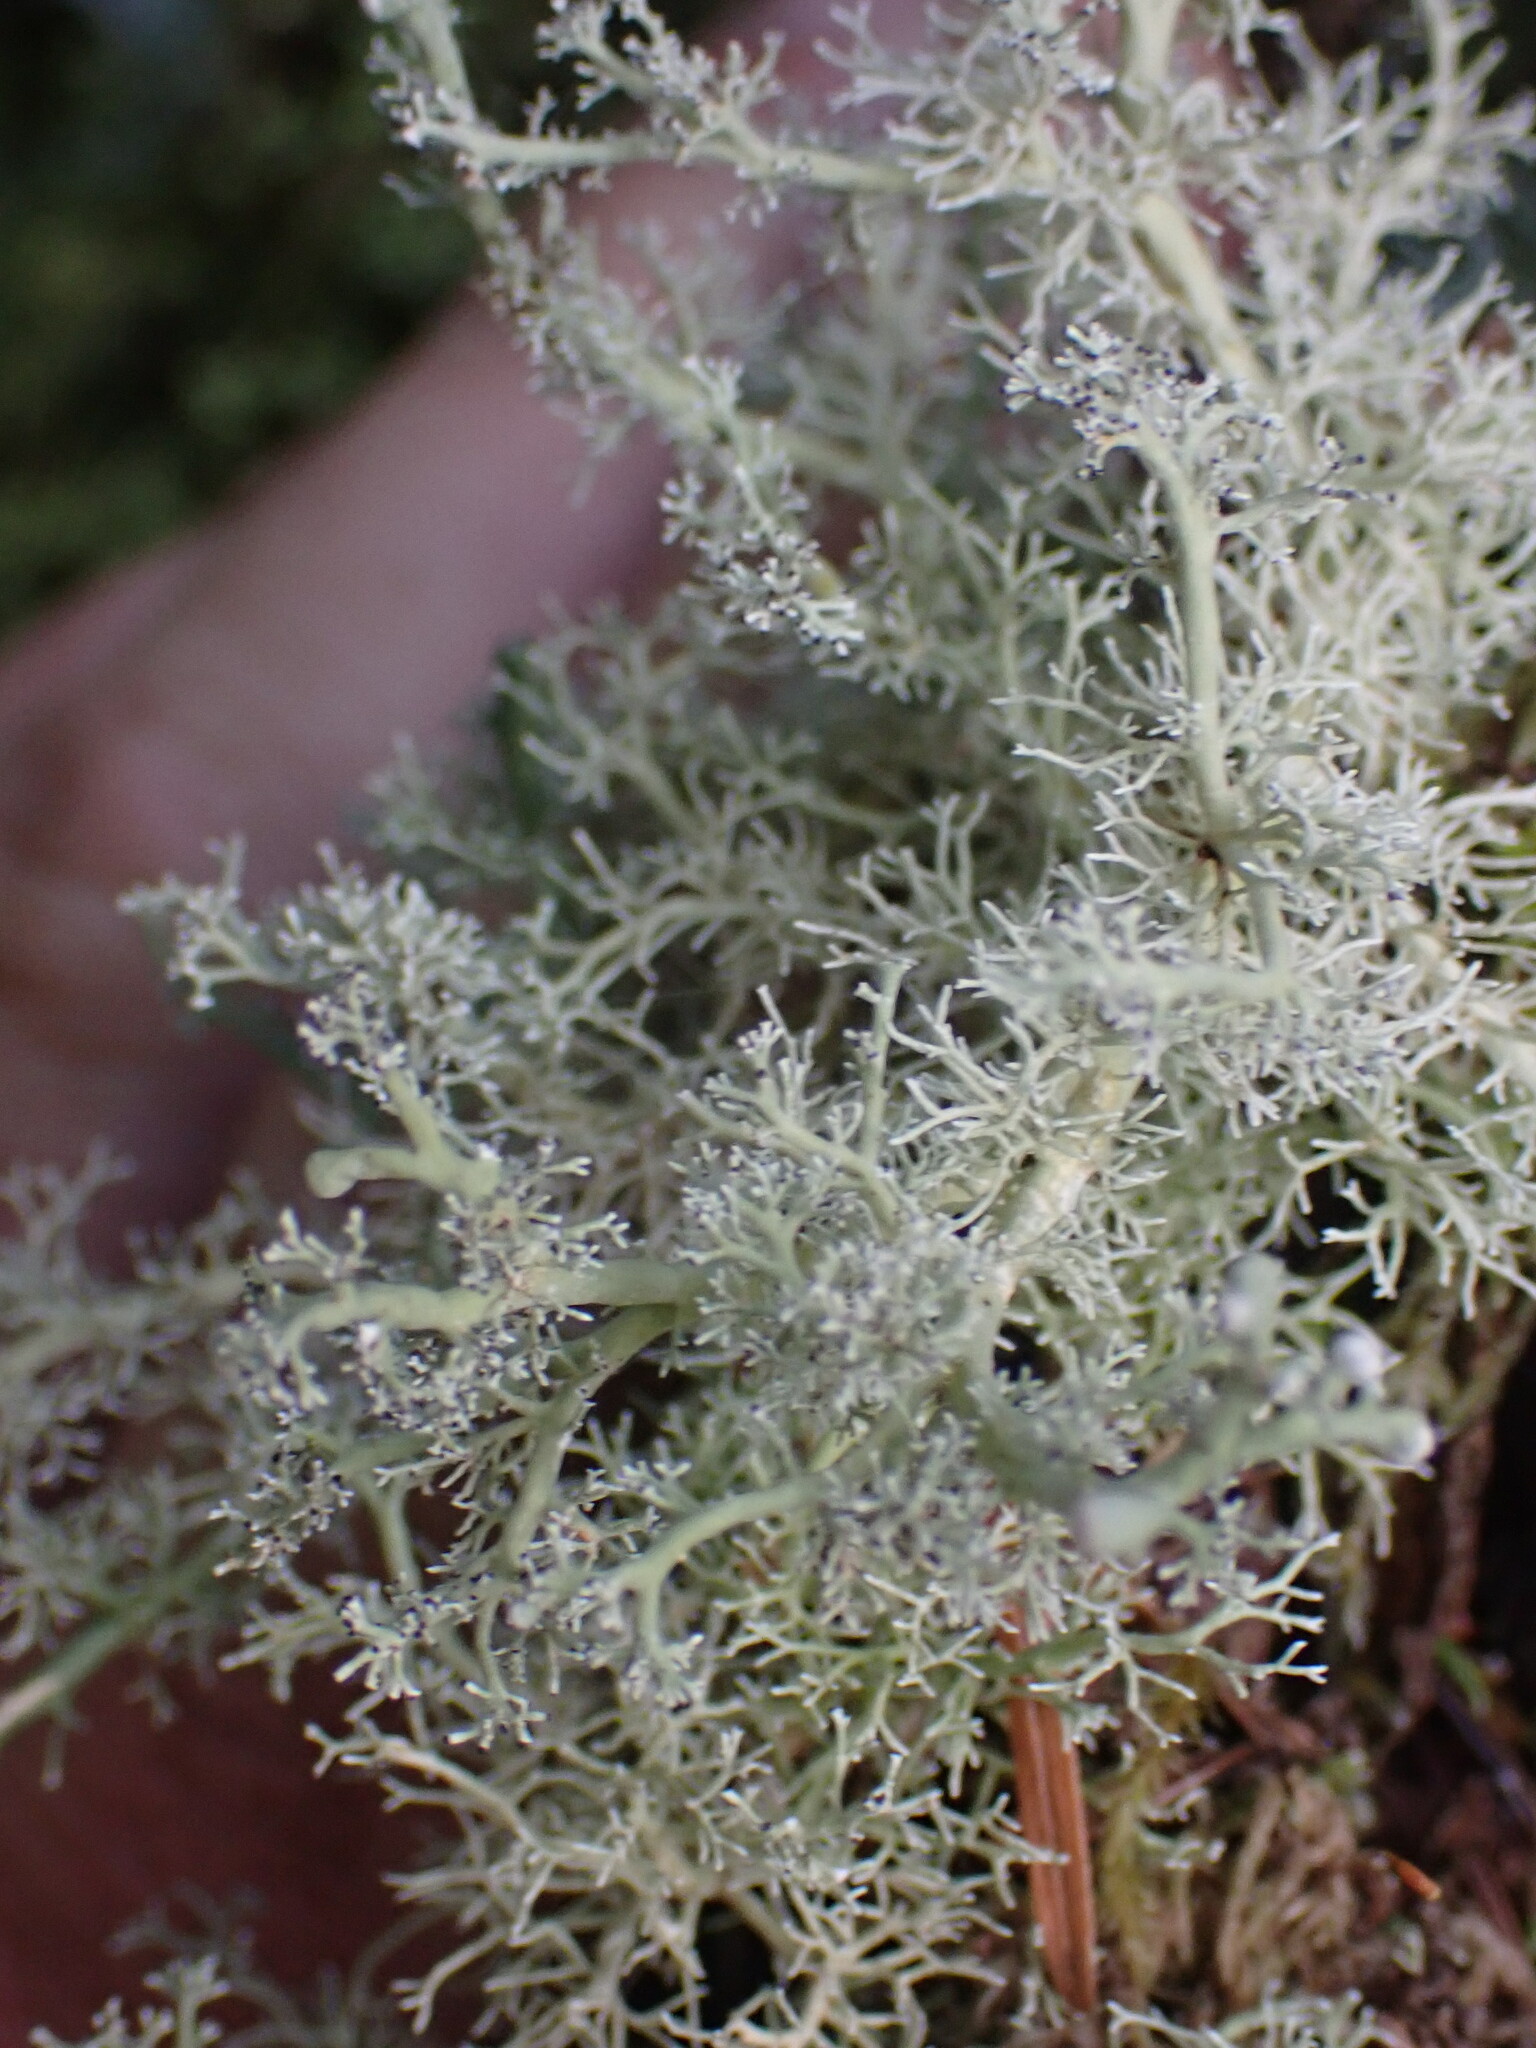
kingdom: Fungi
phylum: Ascomycota
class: Lecanoromycetes
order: Lecanorales
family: Sphaerophoraceae
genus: Sphaerophorus
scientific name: Sphaerophorus globosus
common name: Globe ball lichen
